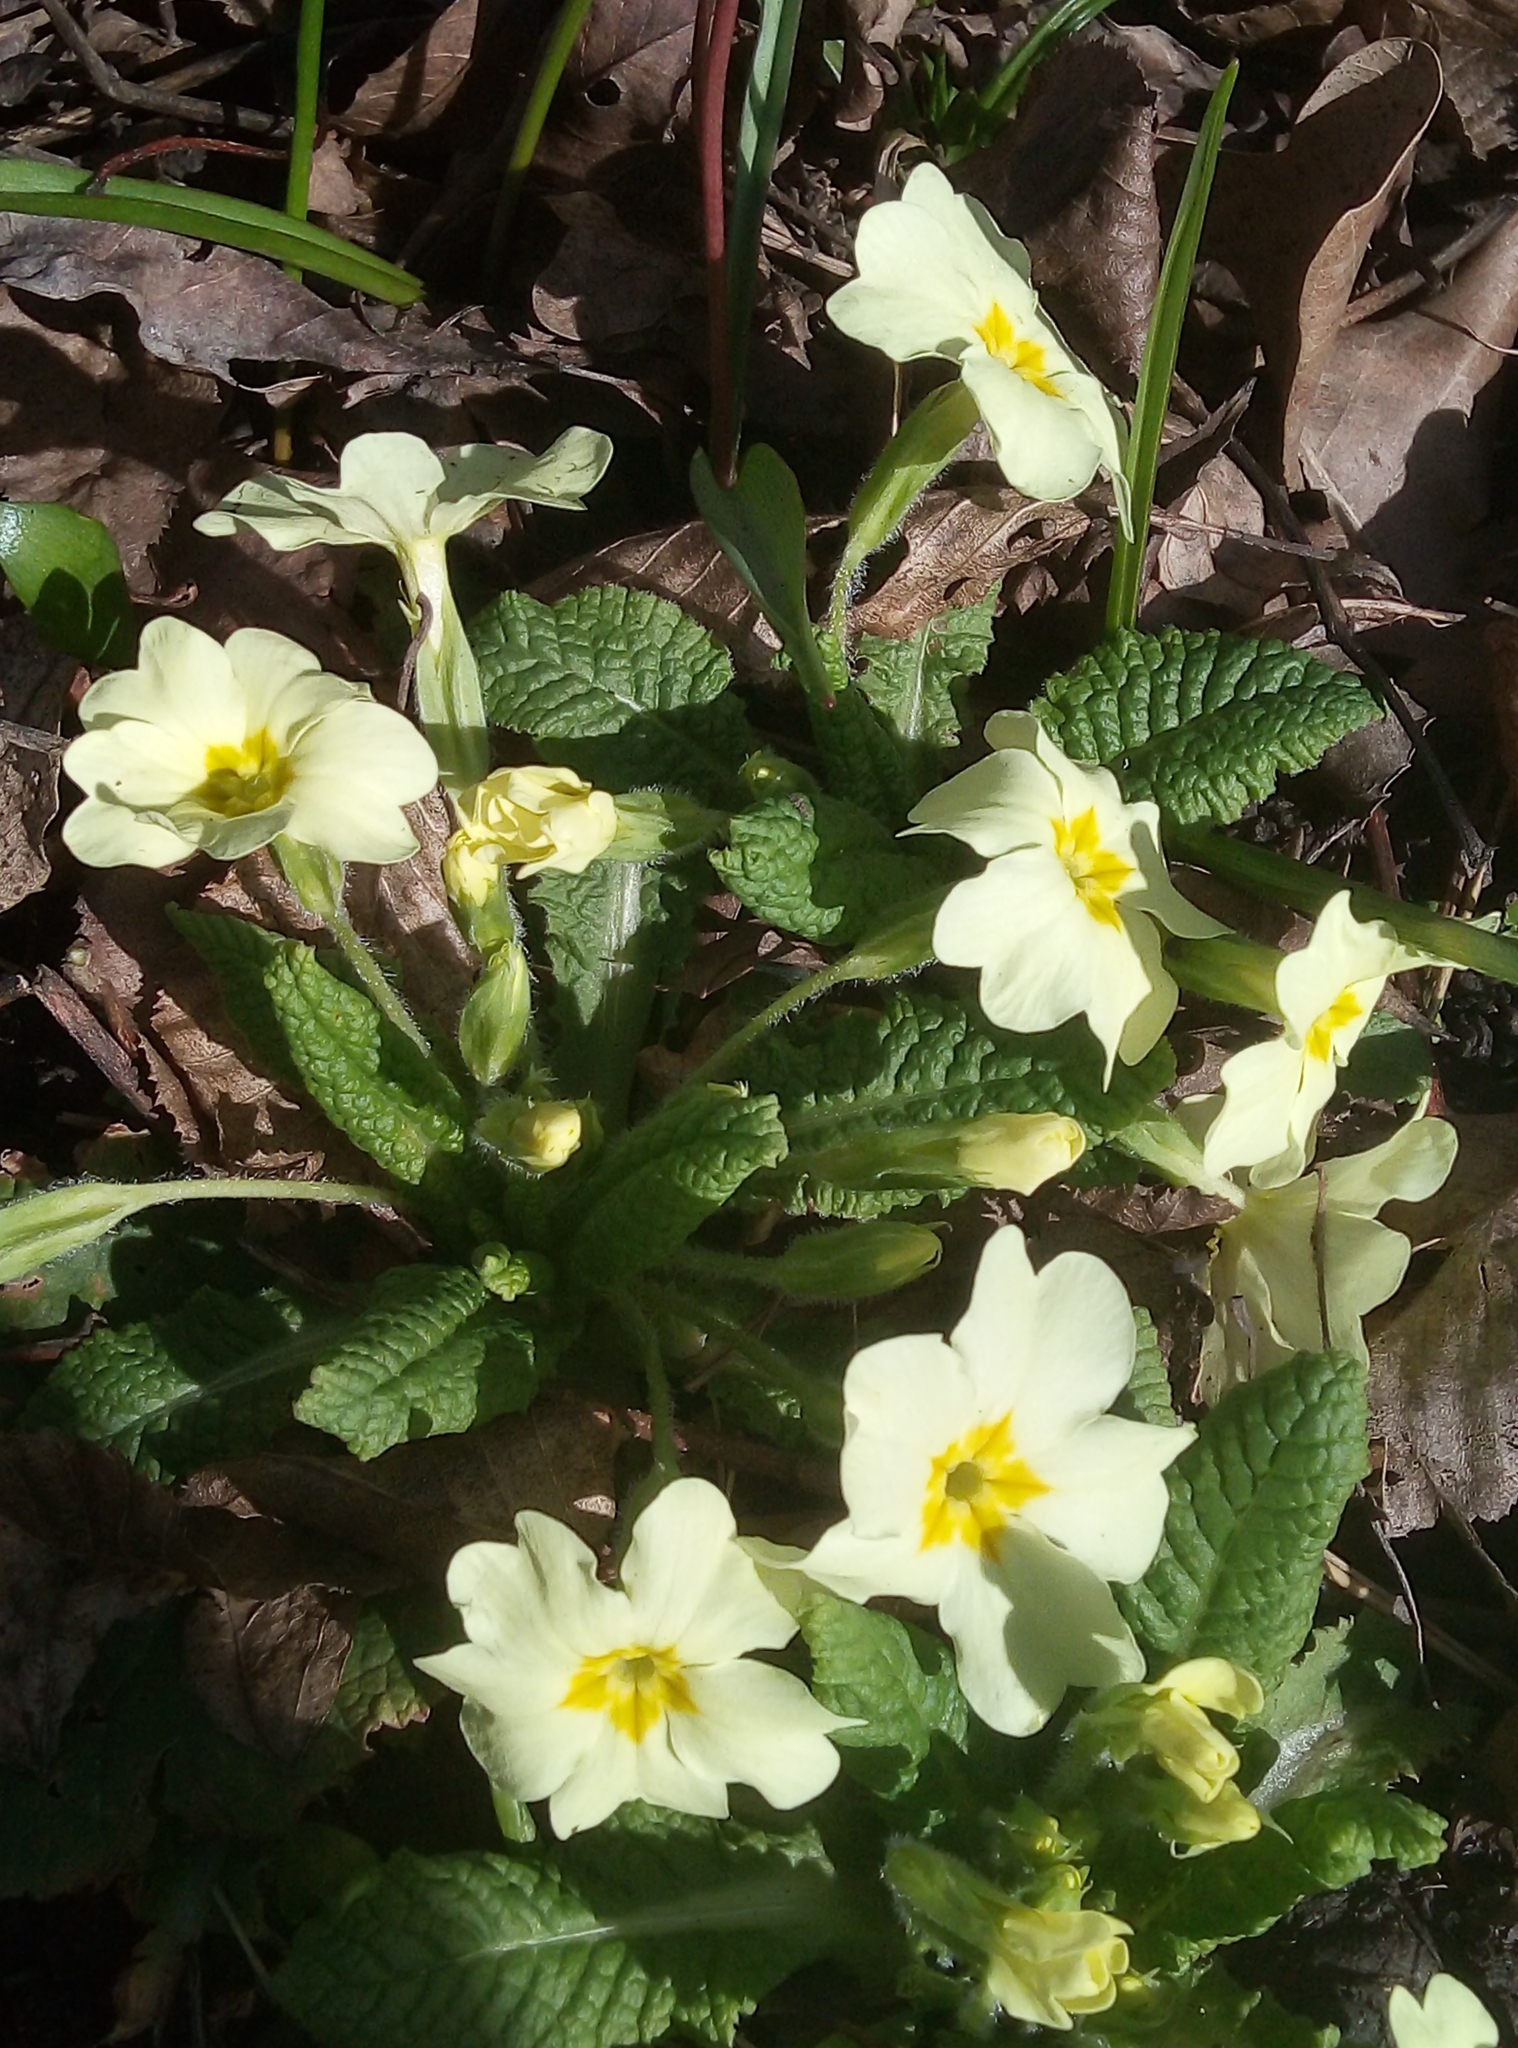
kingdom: Plantae
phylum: Tracheophyta
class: Magnoliopsida
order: Ericales
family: Primulaceae
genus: Primula
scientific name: Primula vulgaris
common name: Primrose
